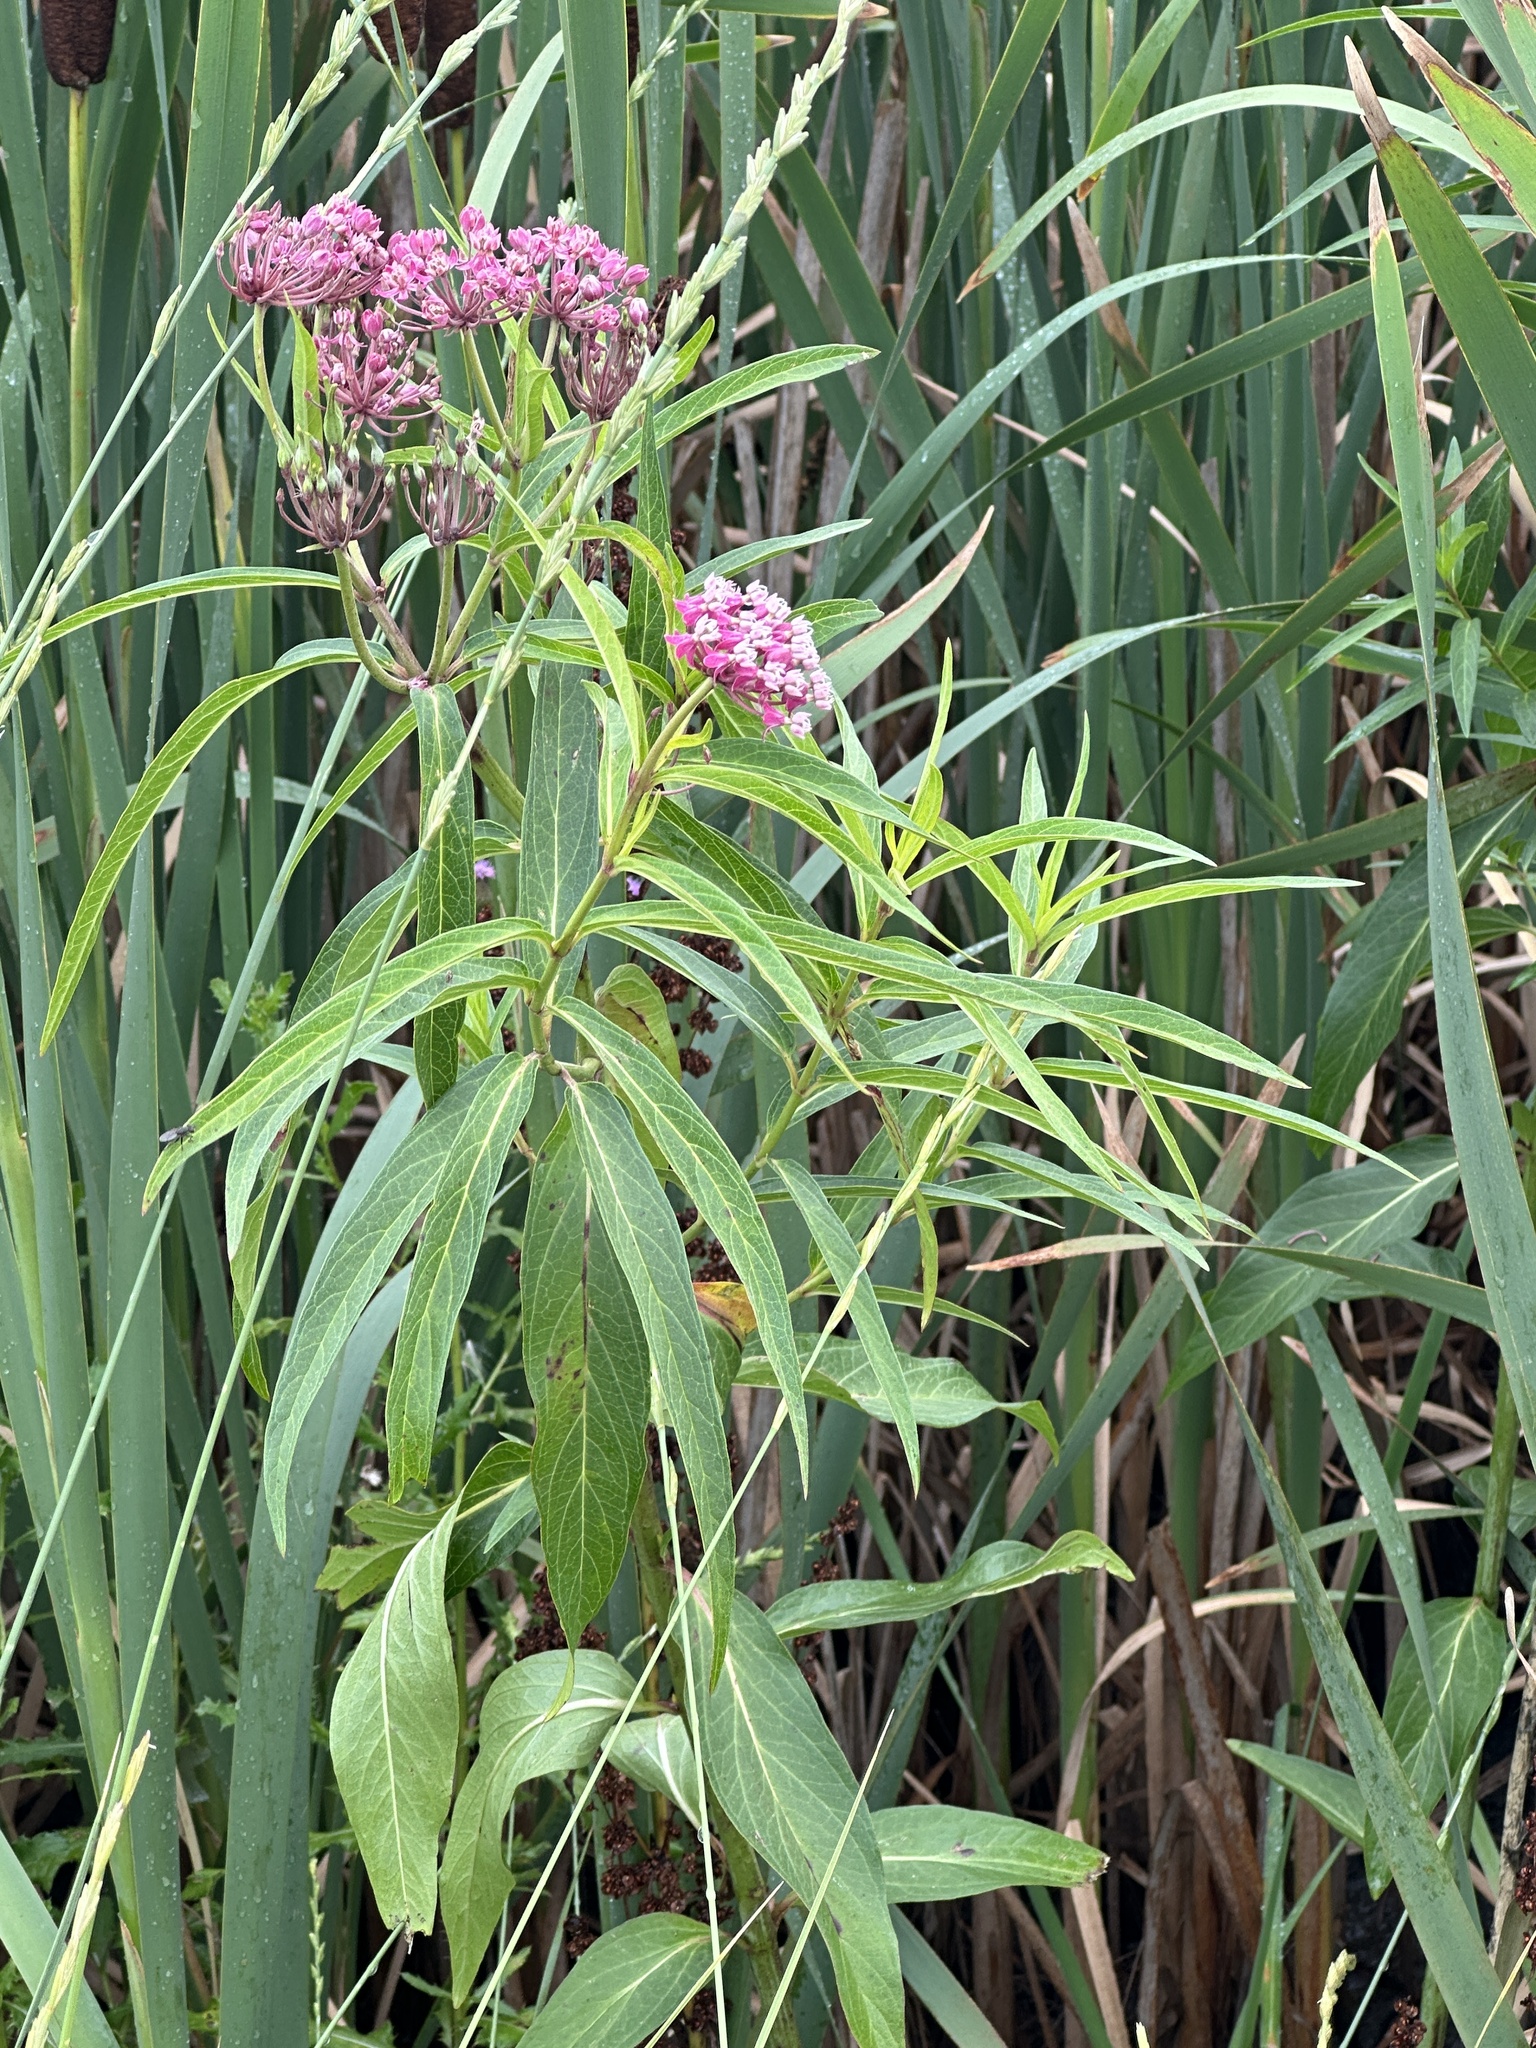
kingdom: Plantae
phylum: Tracheophyta
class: Magnoliopsida
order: Gentianales
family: Apocynaceae
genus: Asclepias
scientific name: Asclepias incarnata
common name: Swamp milkweed
